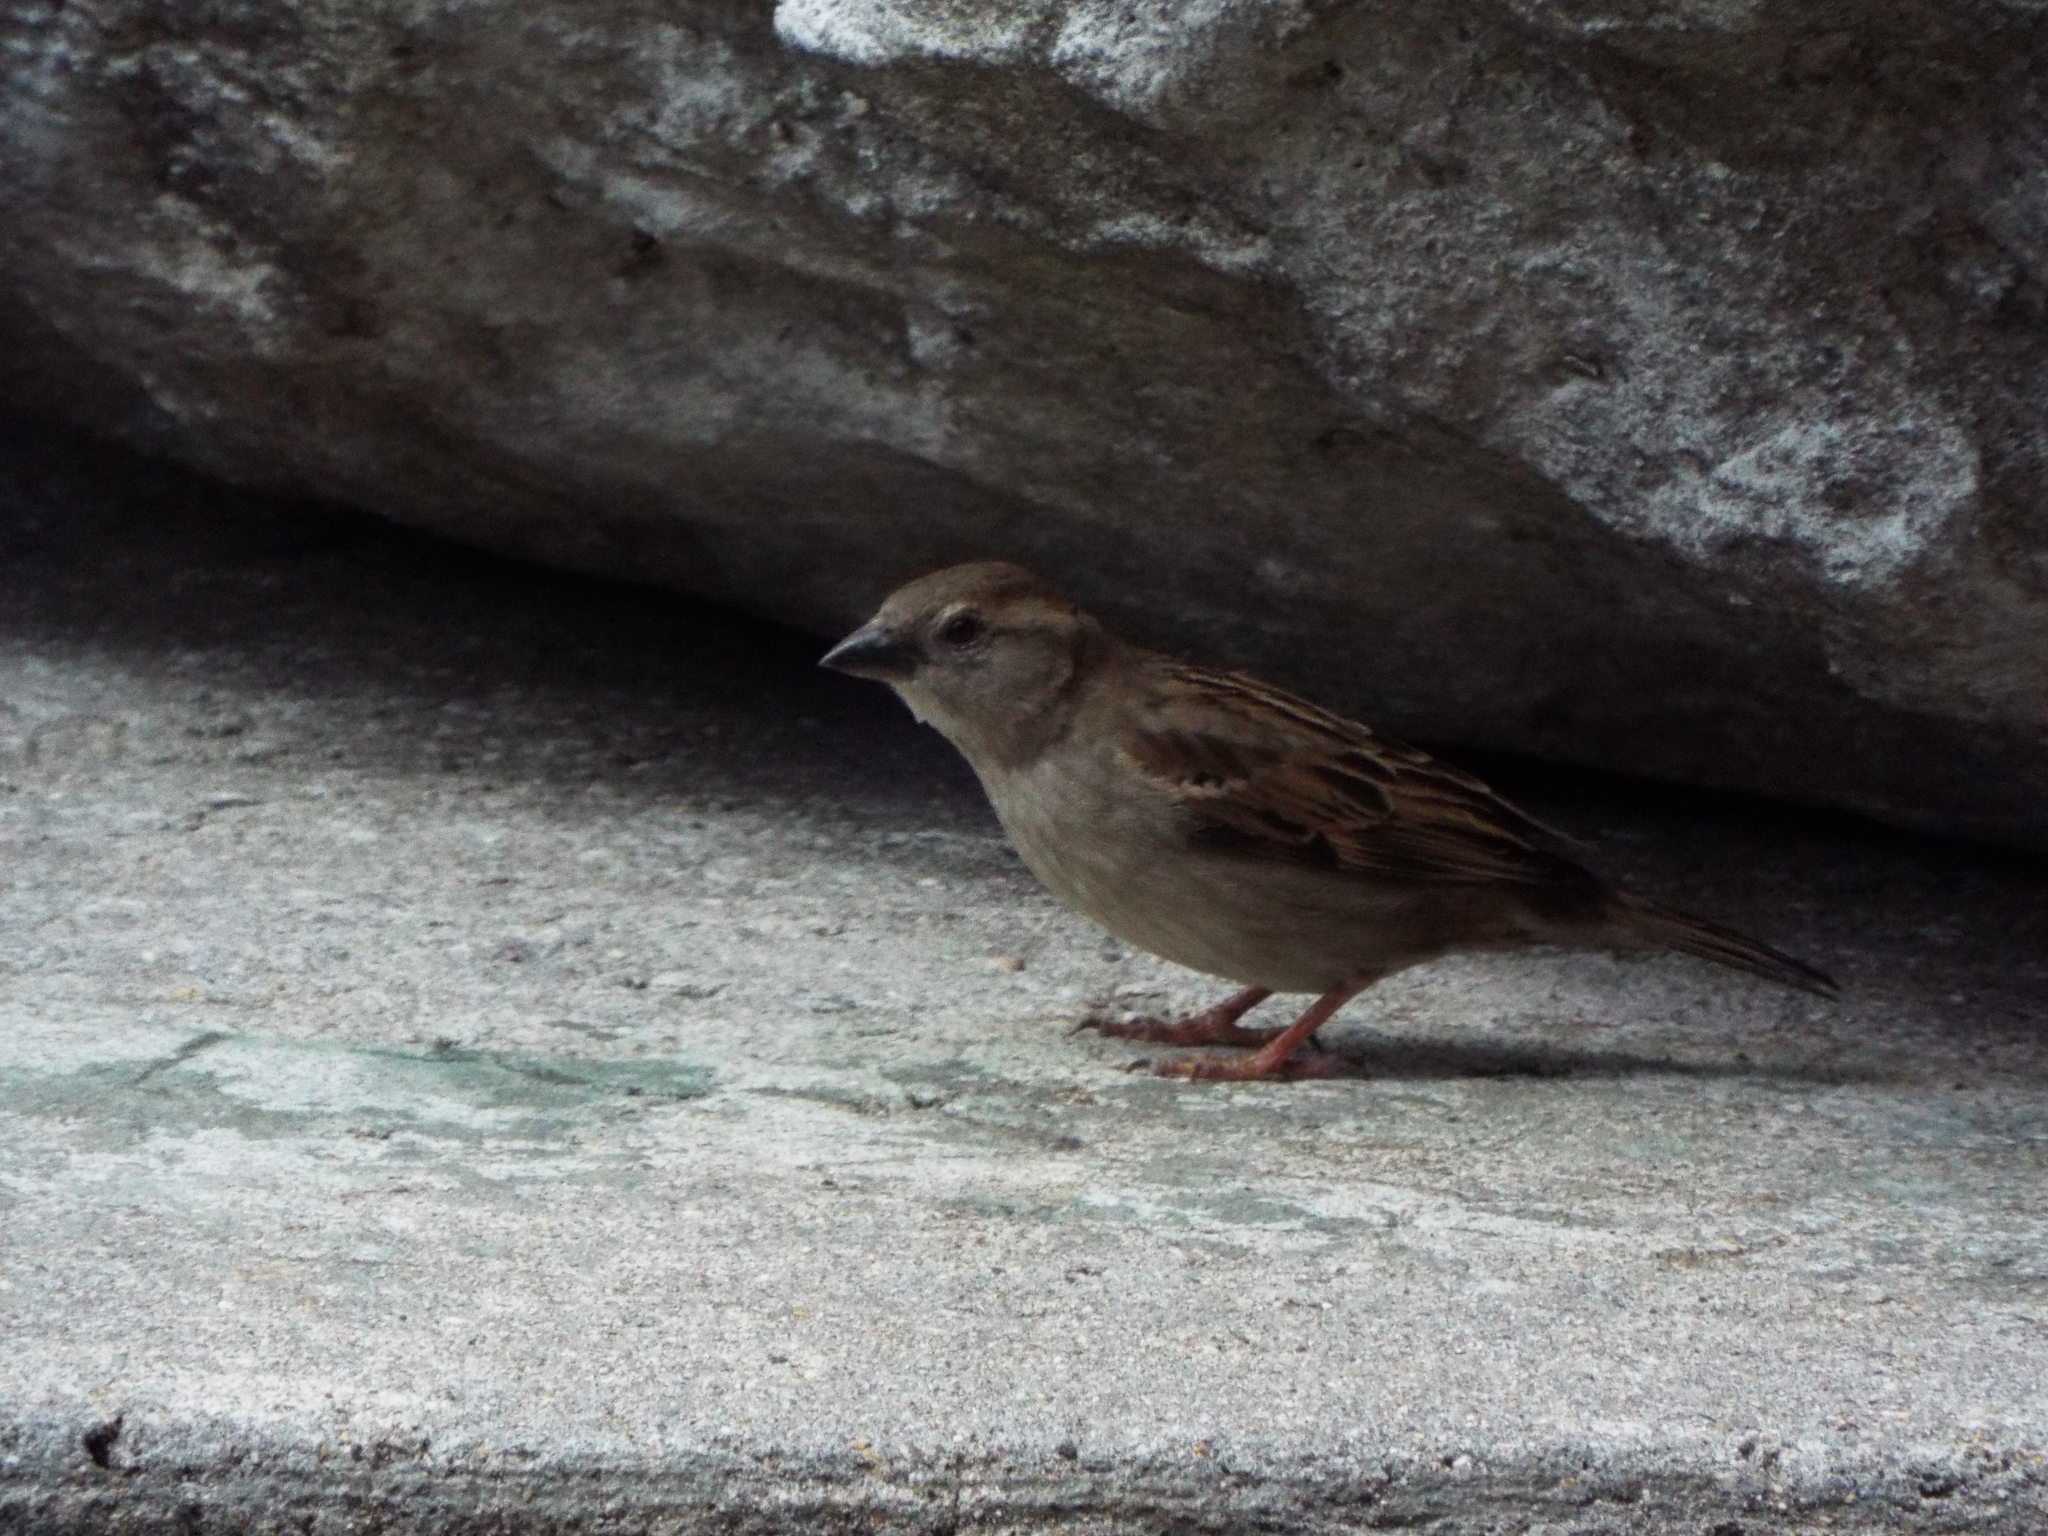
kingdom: Animalia
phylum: Chordata
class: Aves
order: Passeriformes
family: Passeridae
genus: Passer
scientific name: Passer domesticus
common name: House sparrow
